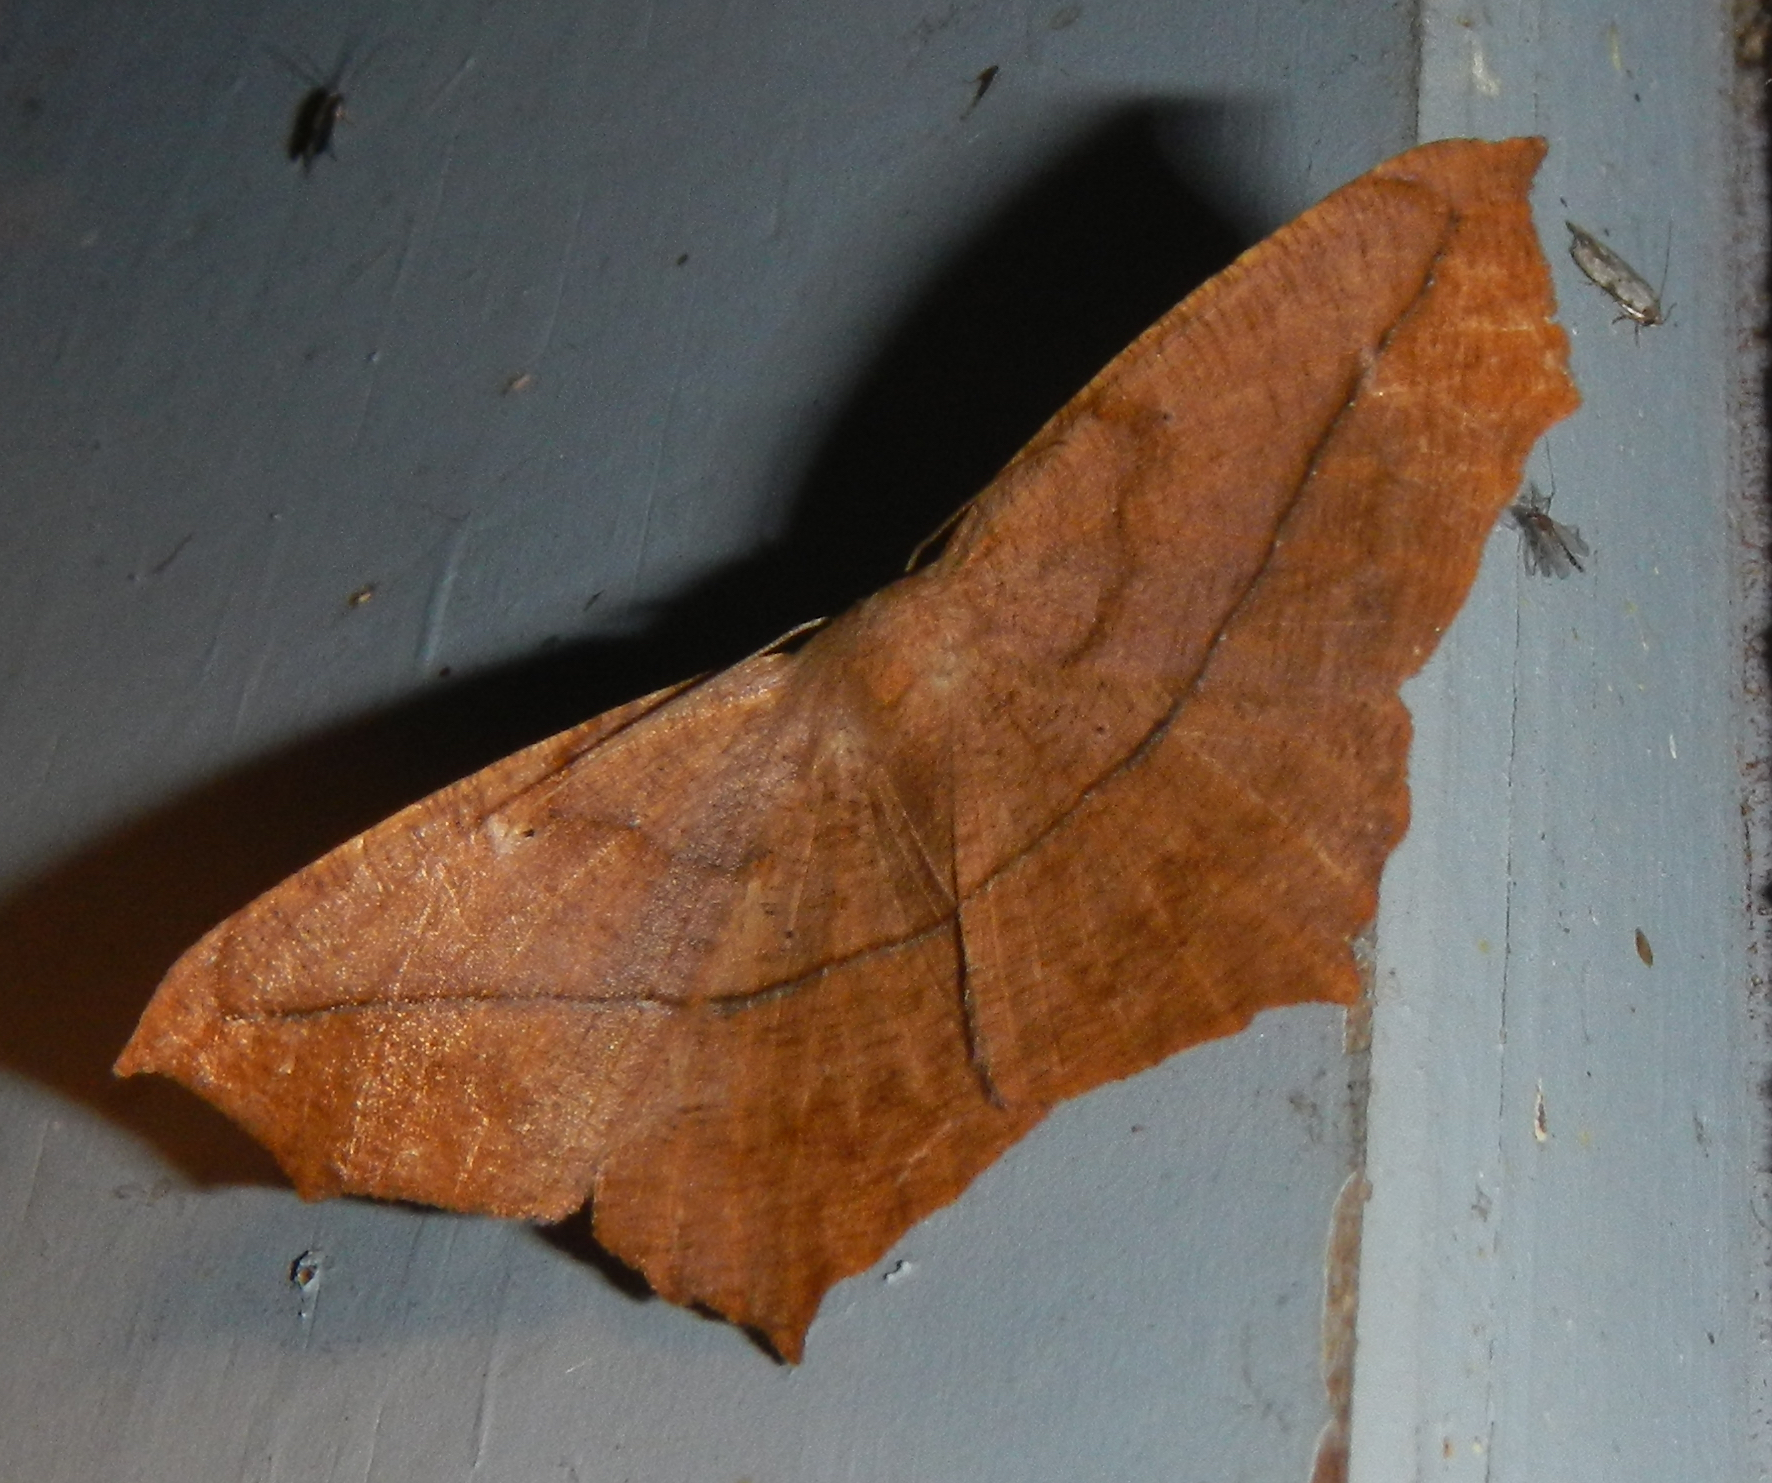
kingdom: Animalia
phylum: Arthropoda
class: Insecta
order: Lepidoptera
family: Geometridae
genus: Prochoerodes
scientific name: Prochoerodes lineola
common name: Large maple spanworm
